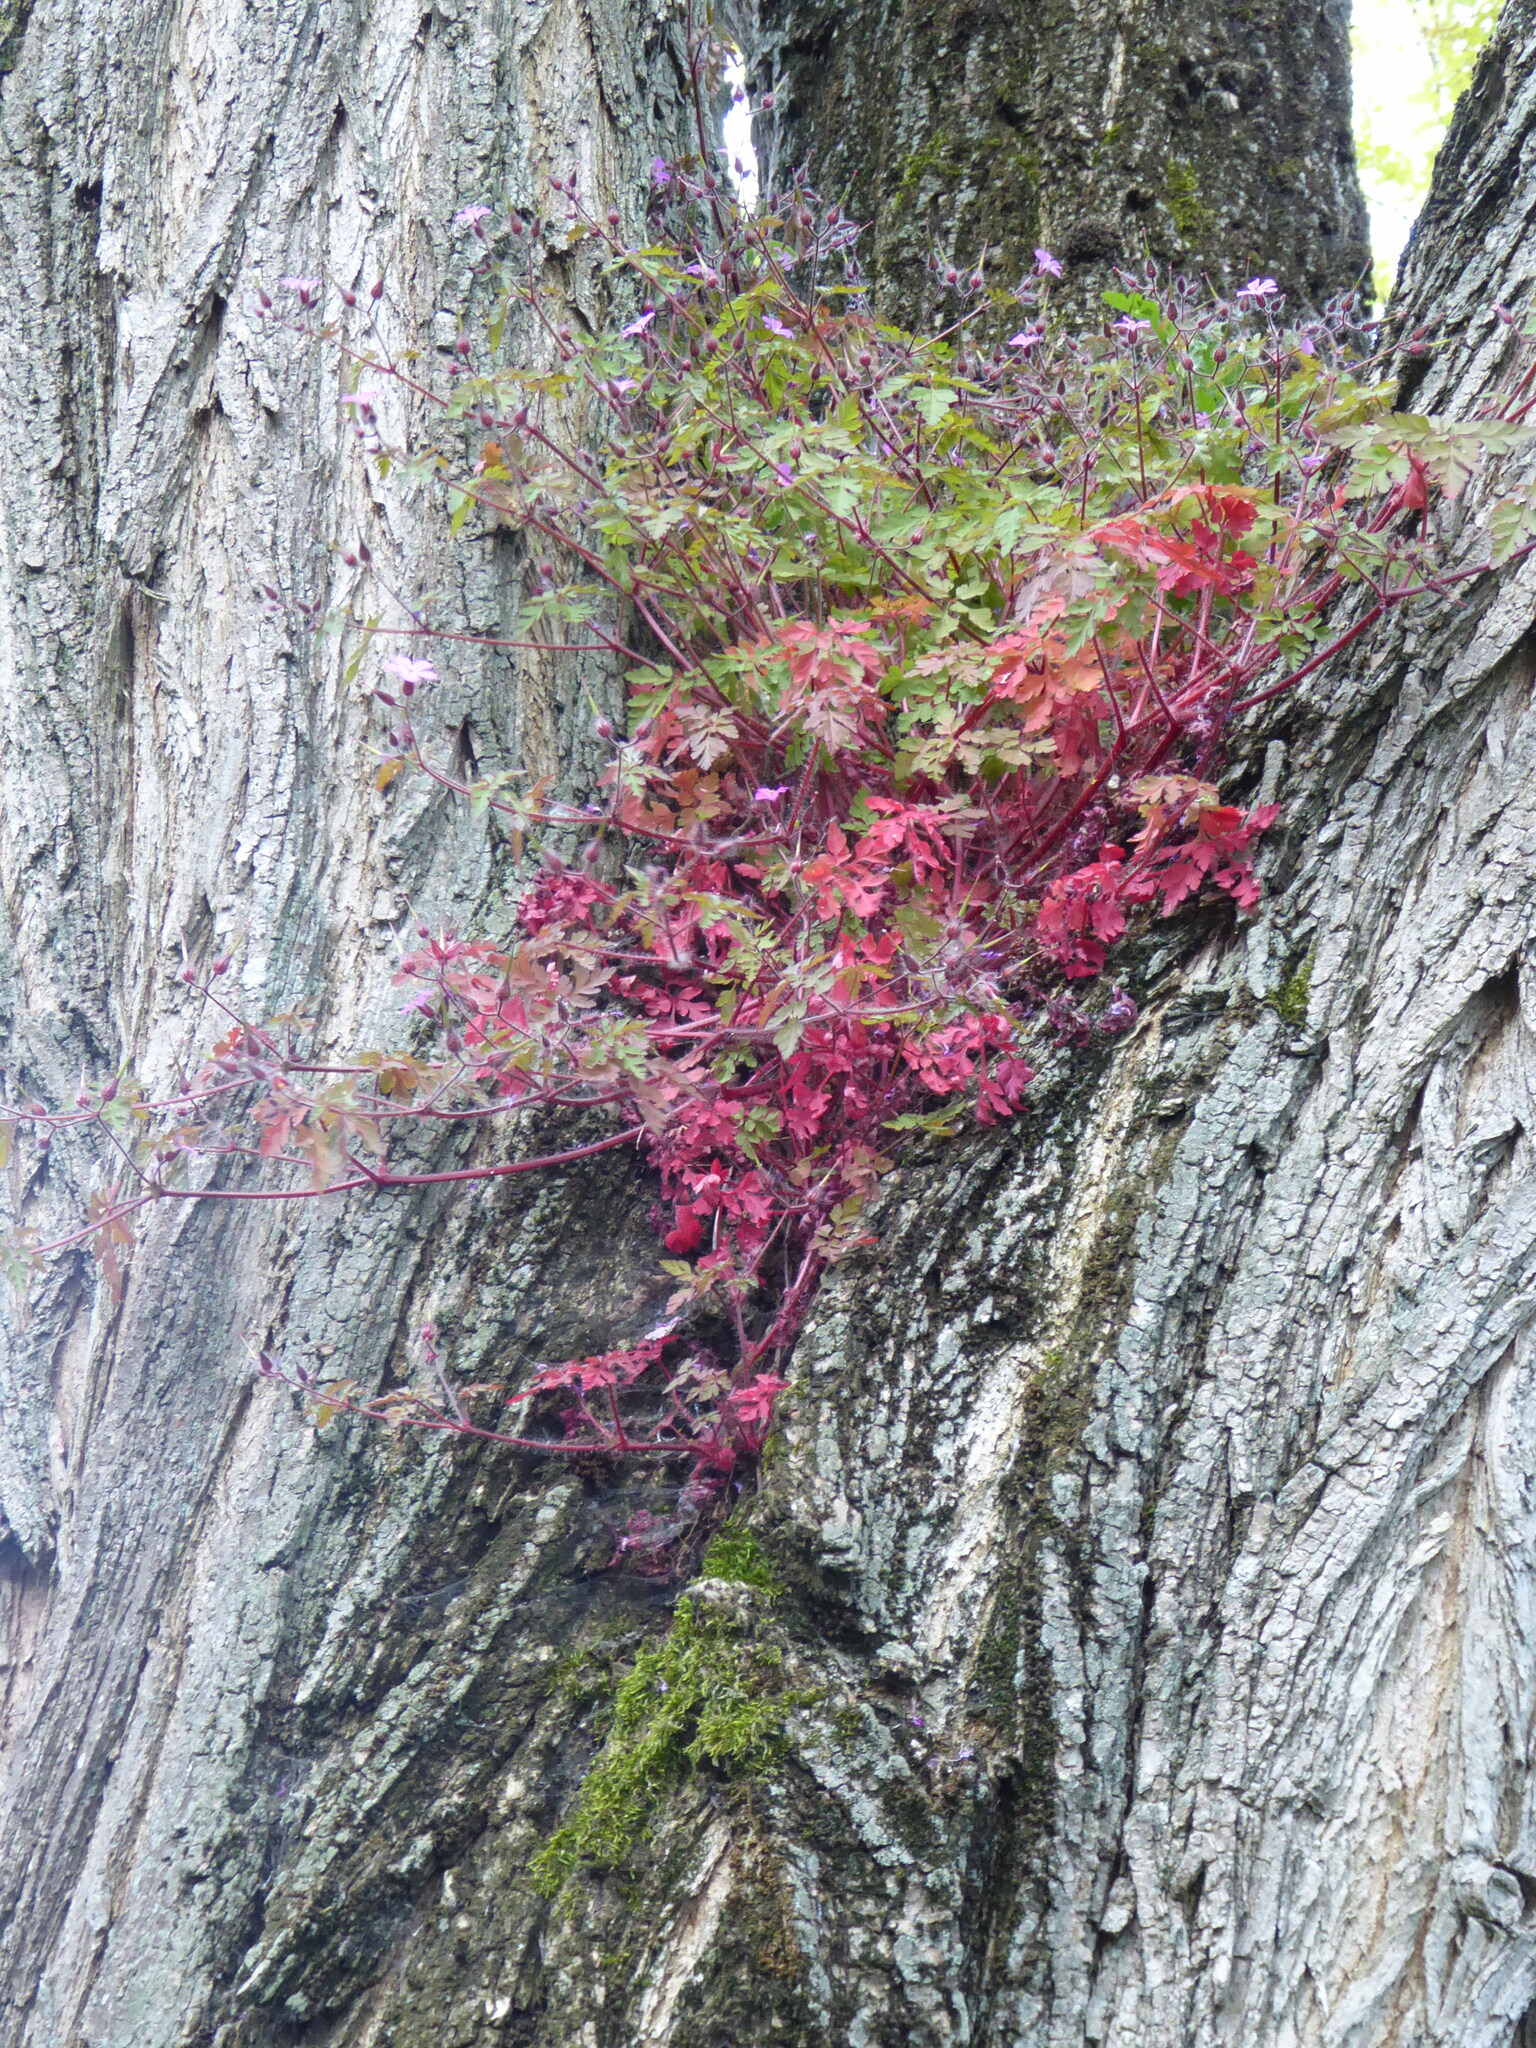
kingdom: Plantae
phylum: Tracheophyta
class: Magnoliopsida
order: Geraniales
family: Geraniaceae
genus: Geranium
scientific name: Geranium robertianum
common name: Herb-robert
